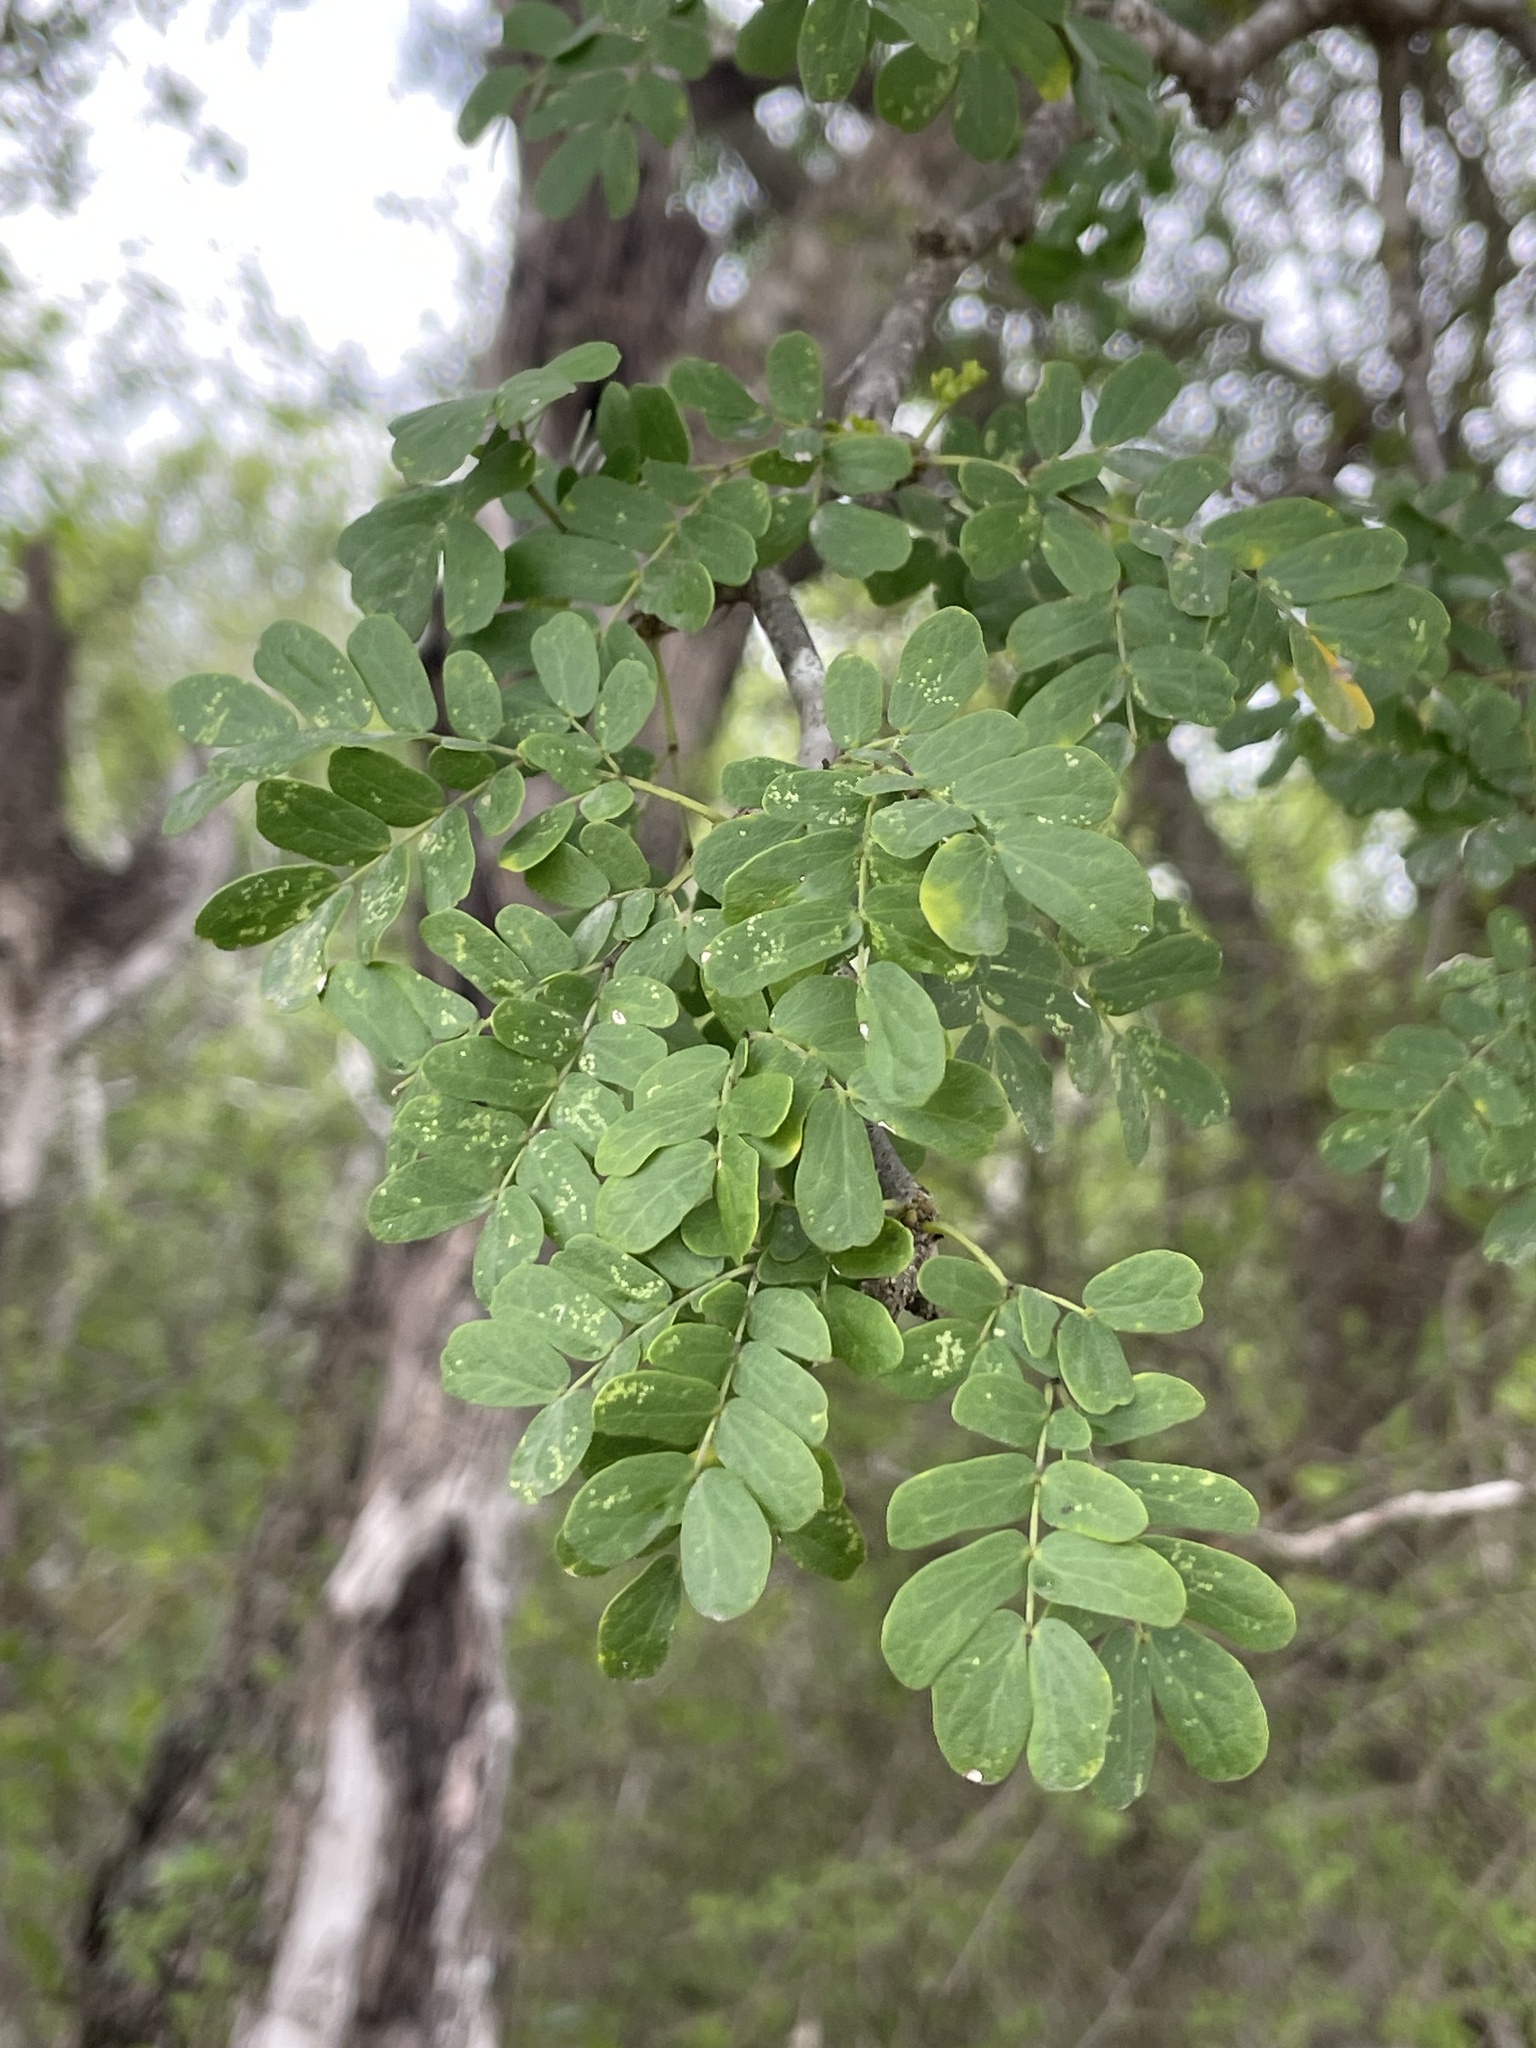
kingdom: Plantae
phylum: Tracheophyta
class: Magnoliopsida
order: Fabales
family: Fabaceae
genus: Ebenopsis
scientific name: Ebenopsis ebano
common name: Ebony blackbead
